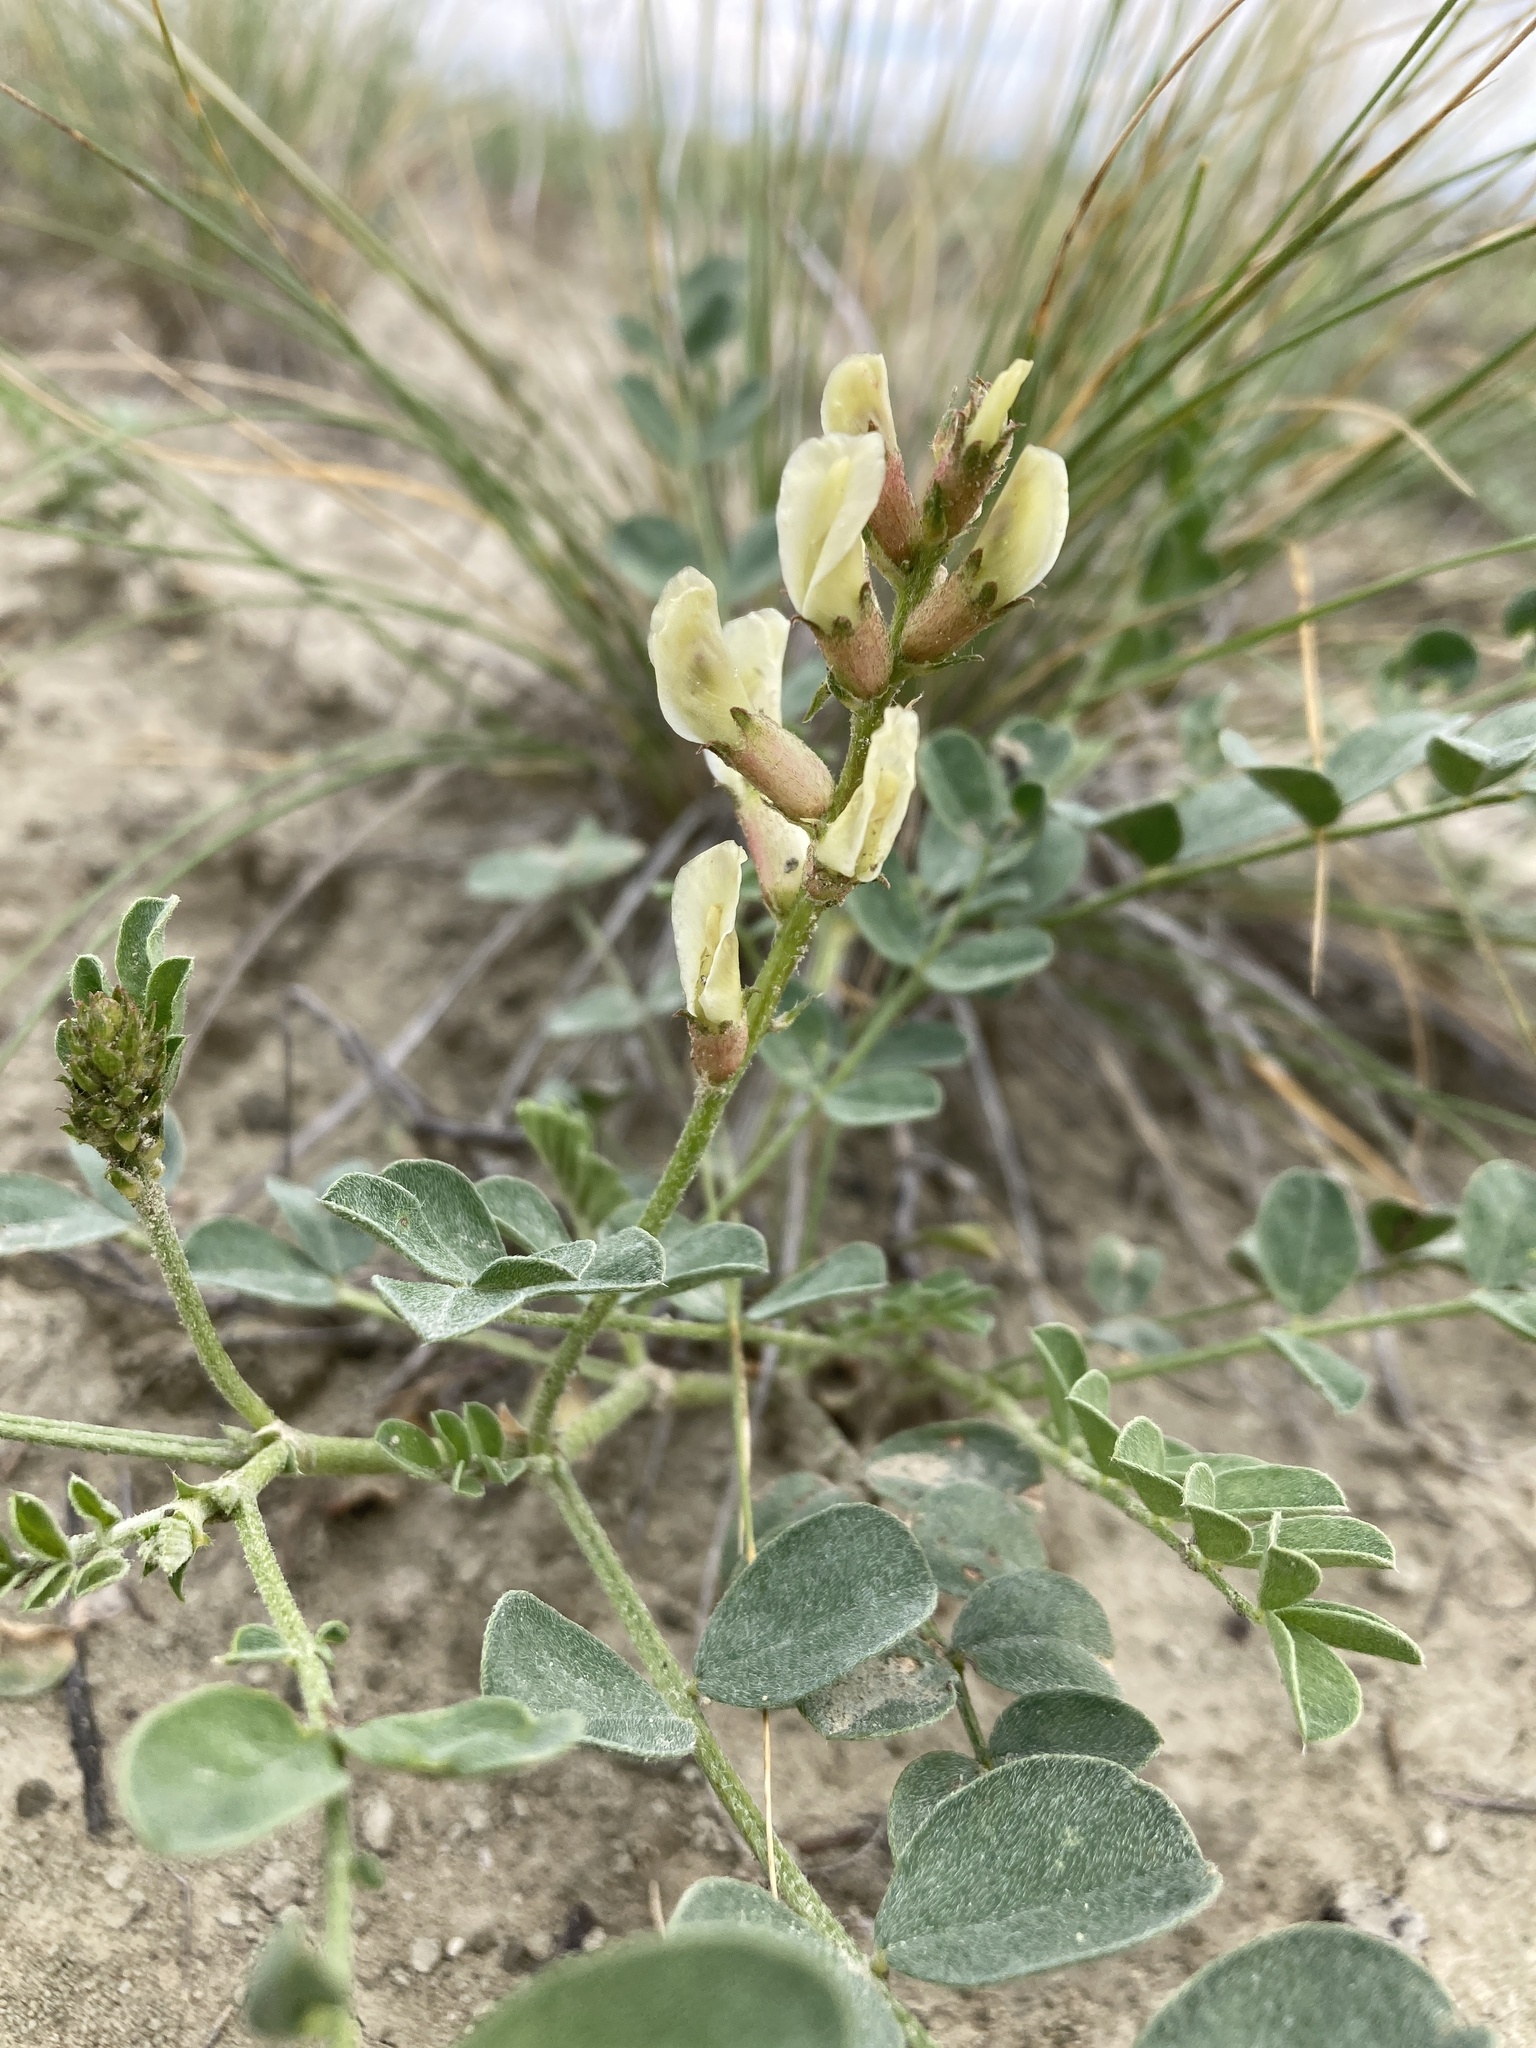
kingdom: Plantae
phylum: Tracheophyta
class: Magnoliopsida
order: Fabales
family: Fabaceae
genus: Astragalus
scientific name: Astragalus oreganus
